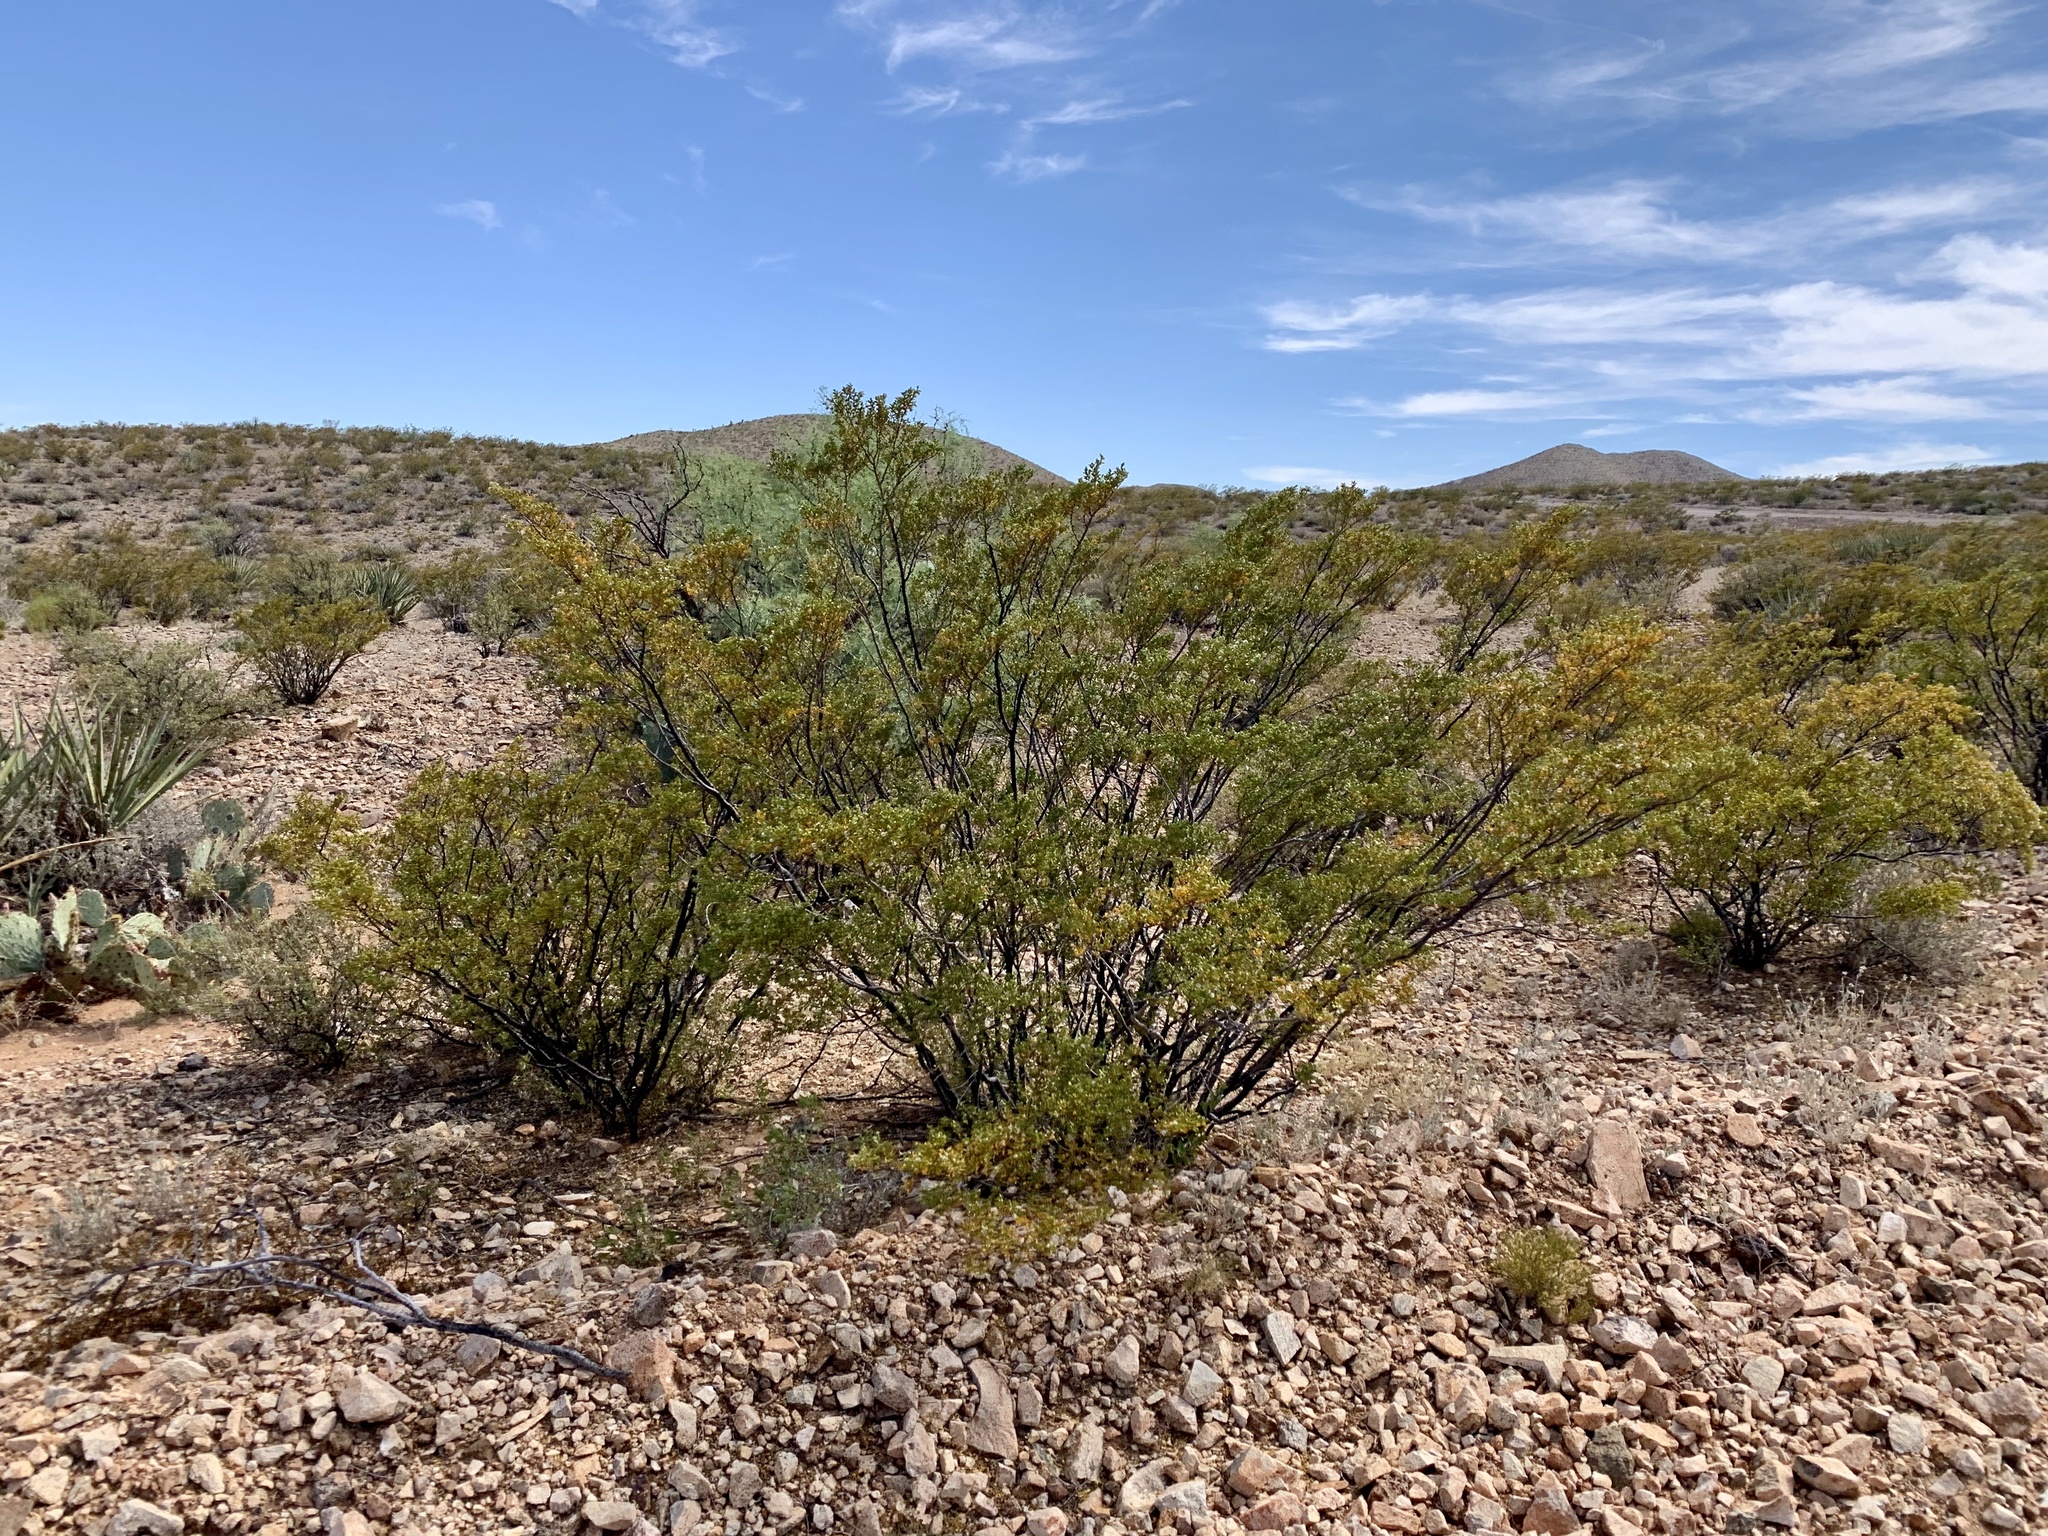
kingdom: Plantae
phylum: Tracheophyta
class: Magnoliopsida
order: Zygophyllales
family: Zygophyllaceae
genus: Larrea
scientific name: Larrea tridentata
